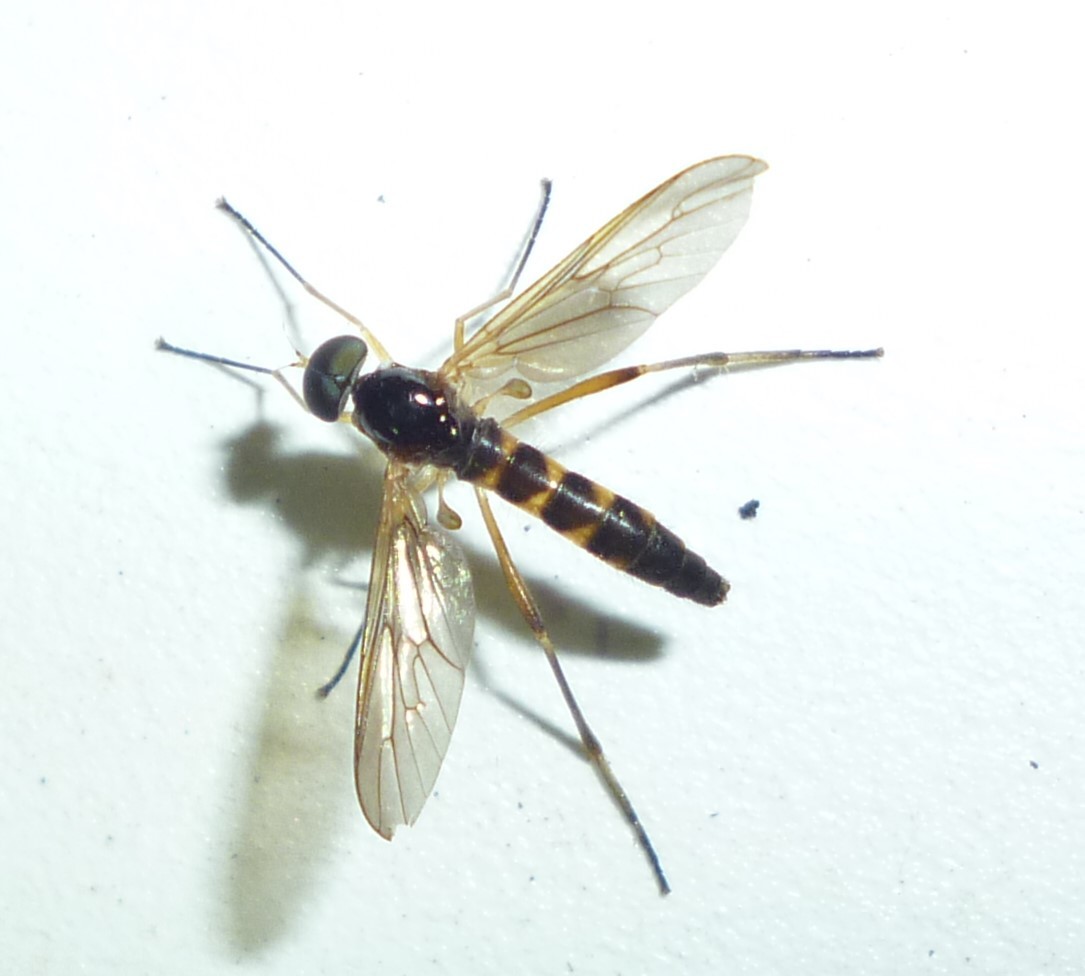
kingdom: Animalia
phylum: Arthropoda
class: Insecta
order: Diptera
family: Xylophagidae
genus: Dialysis
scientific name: Dialysis elongata
